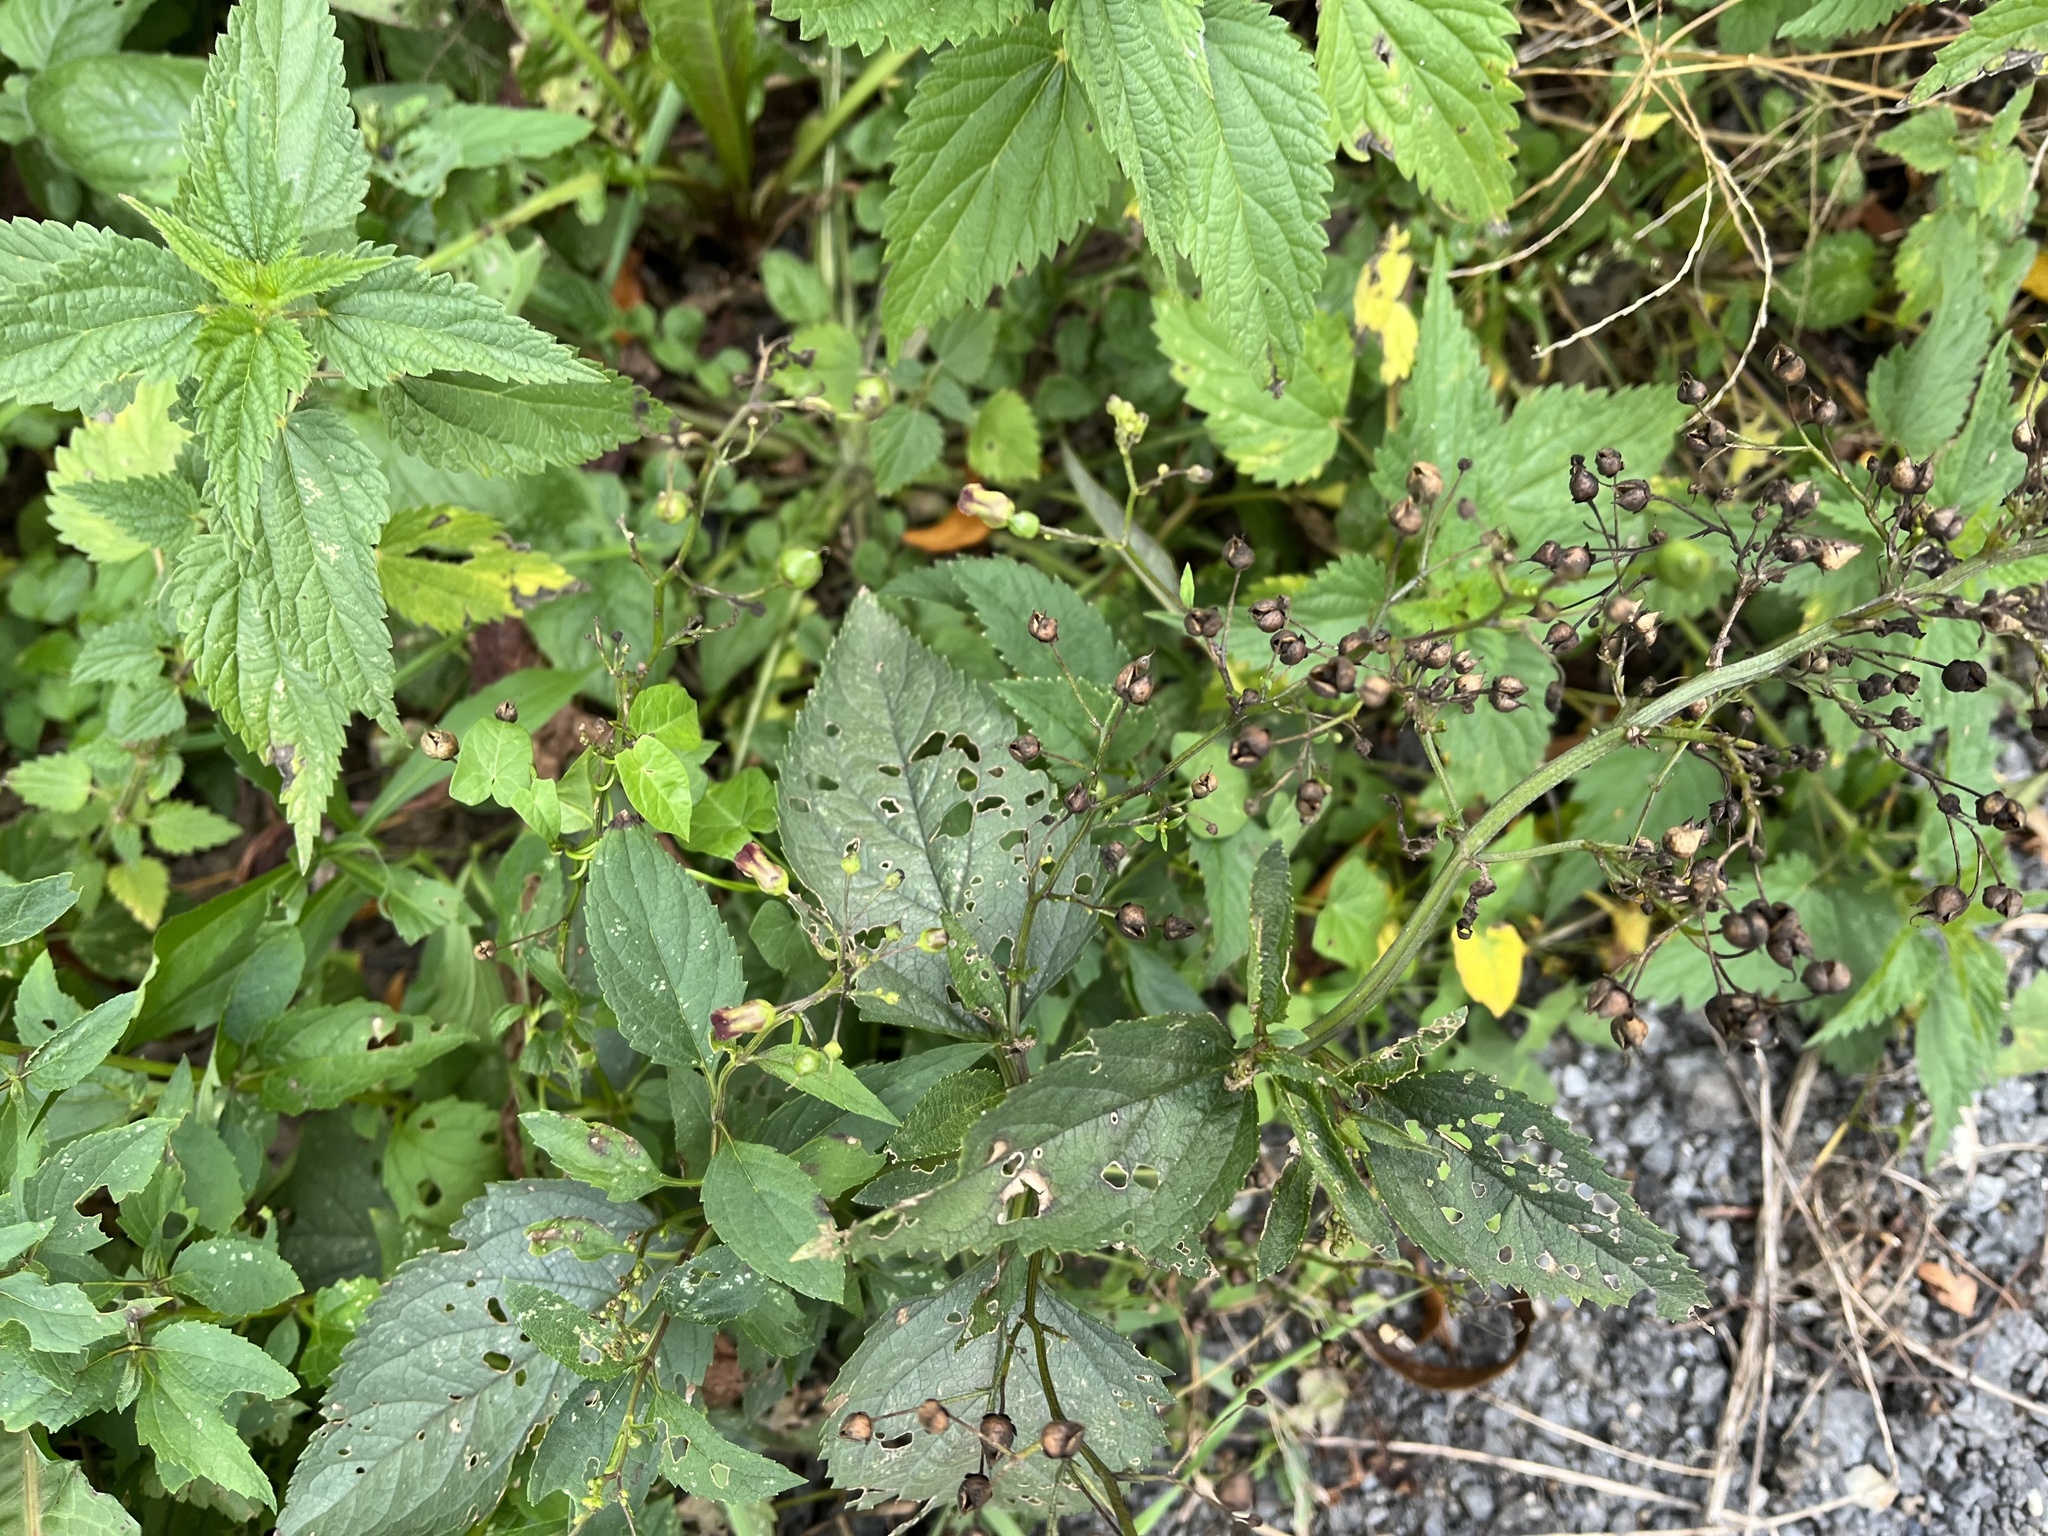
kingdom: Plantae
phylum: Tracheophyta
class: Magnoliopsida
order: Lamiales
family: Scrophulariaceae
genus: Scrophularia
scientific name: Scrophularia nodosa
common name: Common figwort
